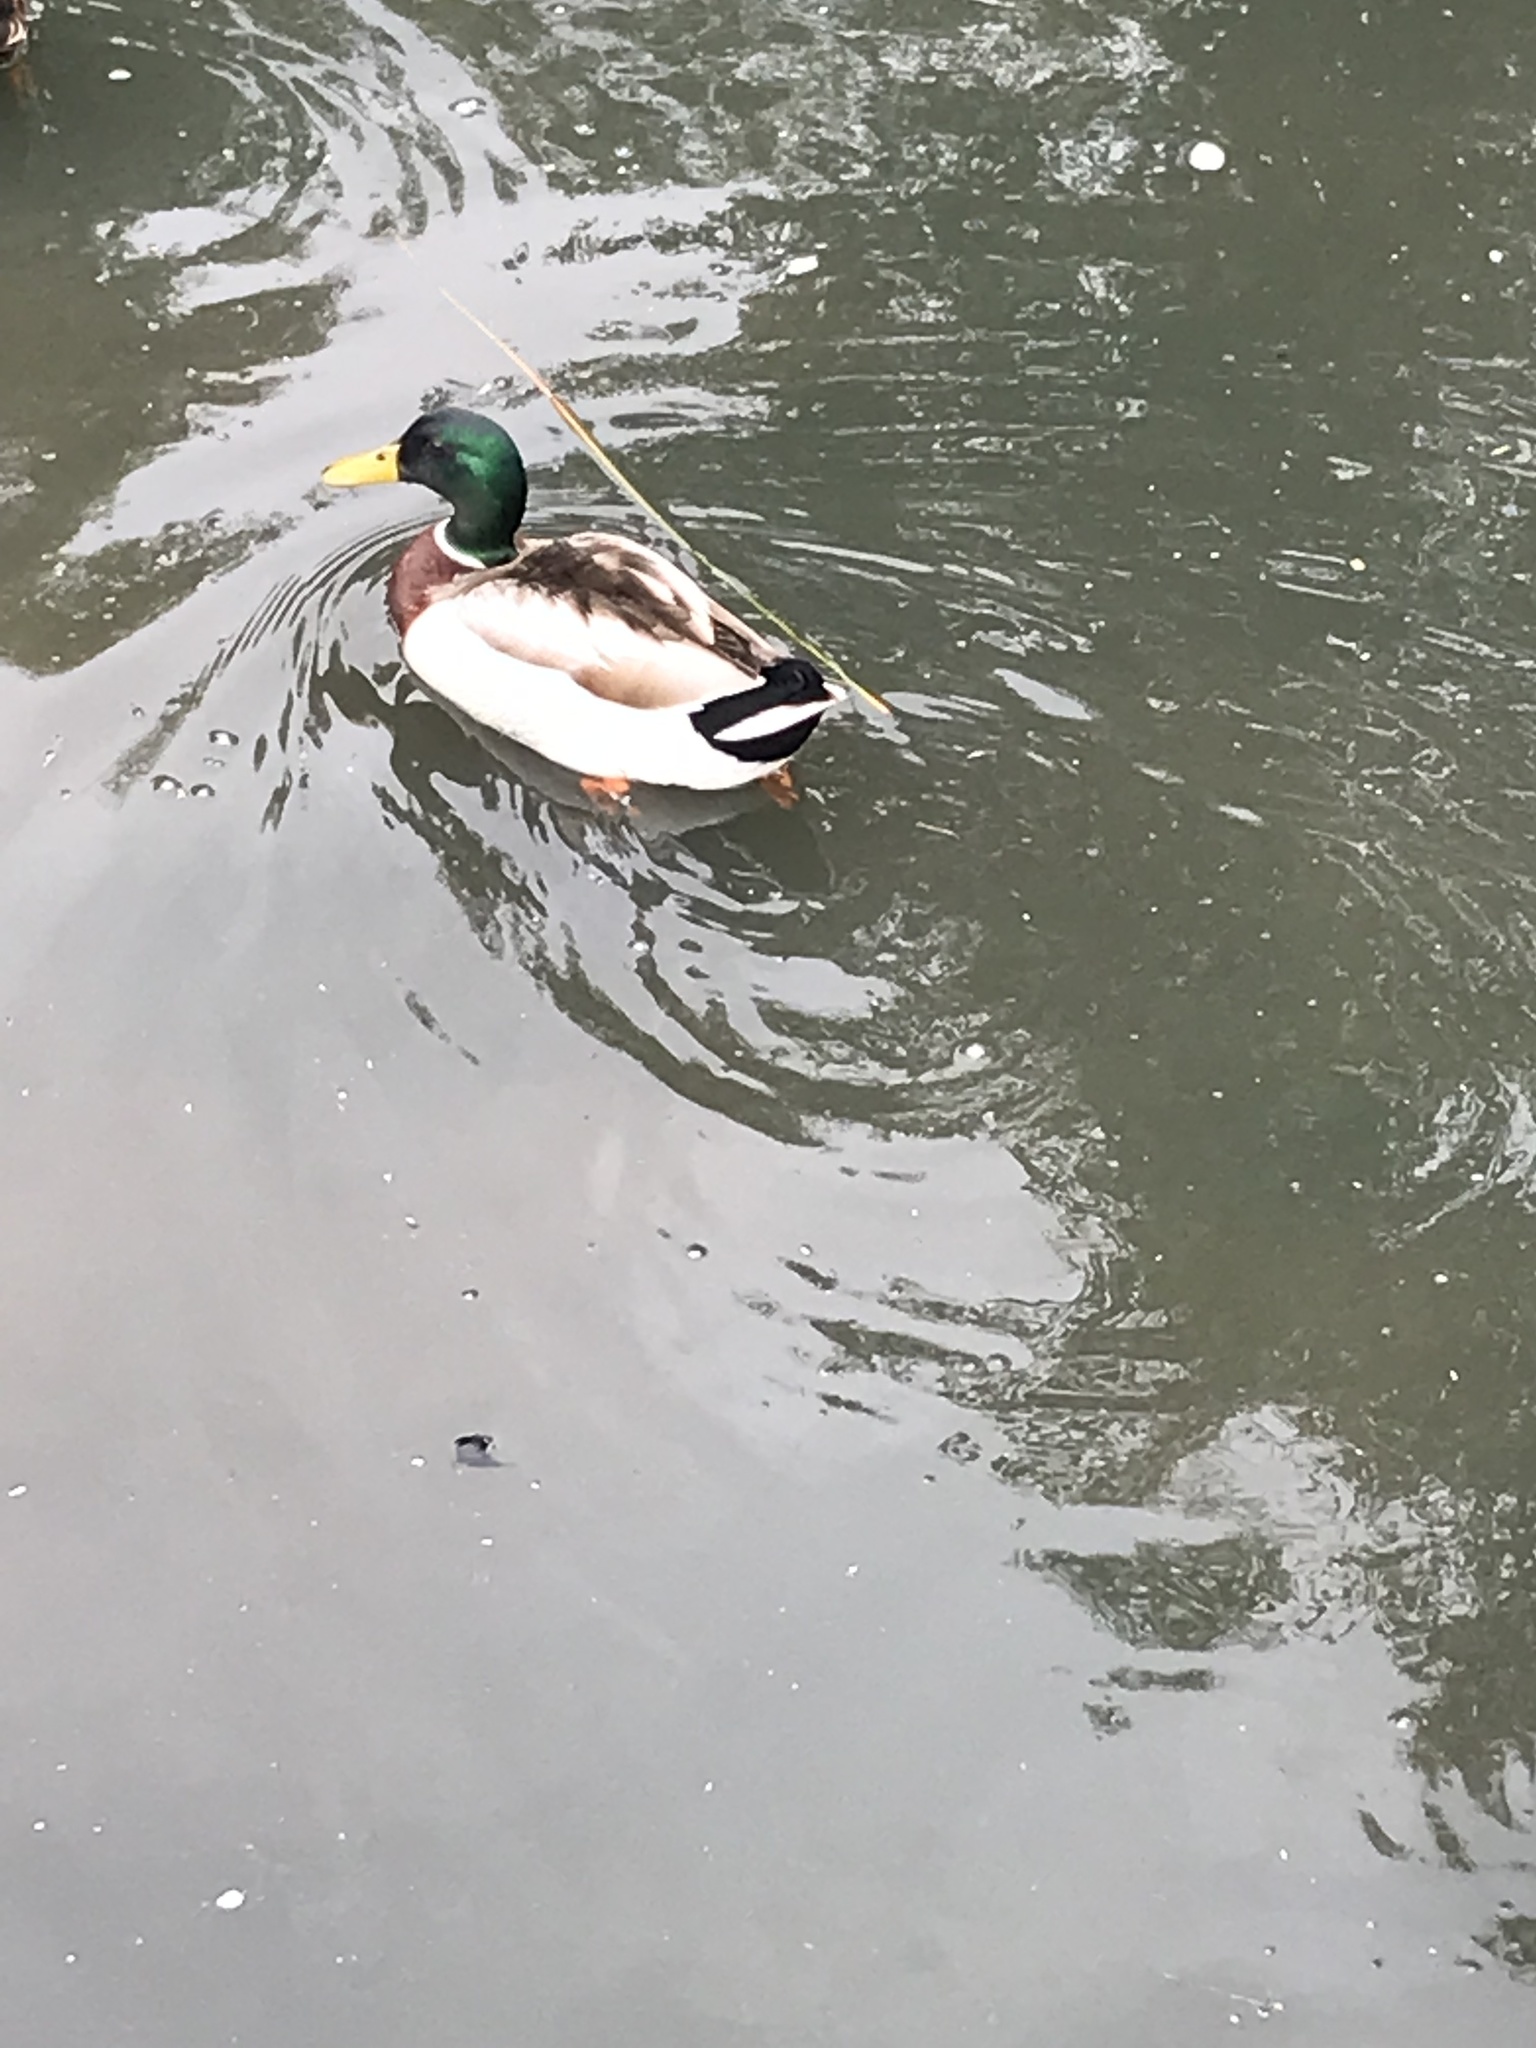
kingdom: Animalia
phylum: Chordata
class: Aves
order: Anseriformes
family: Anatidae
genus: Anas
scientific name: Anas platyrhynchos
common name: Mallard
